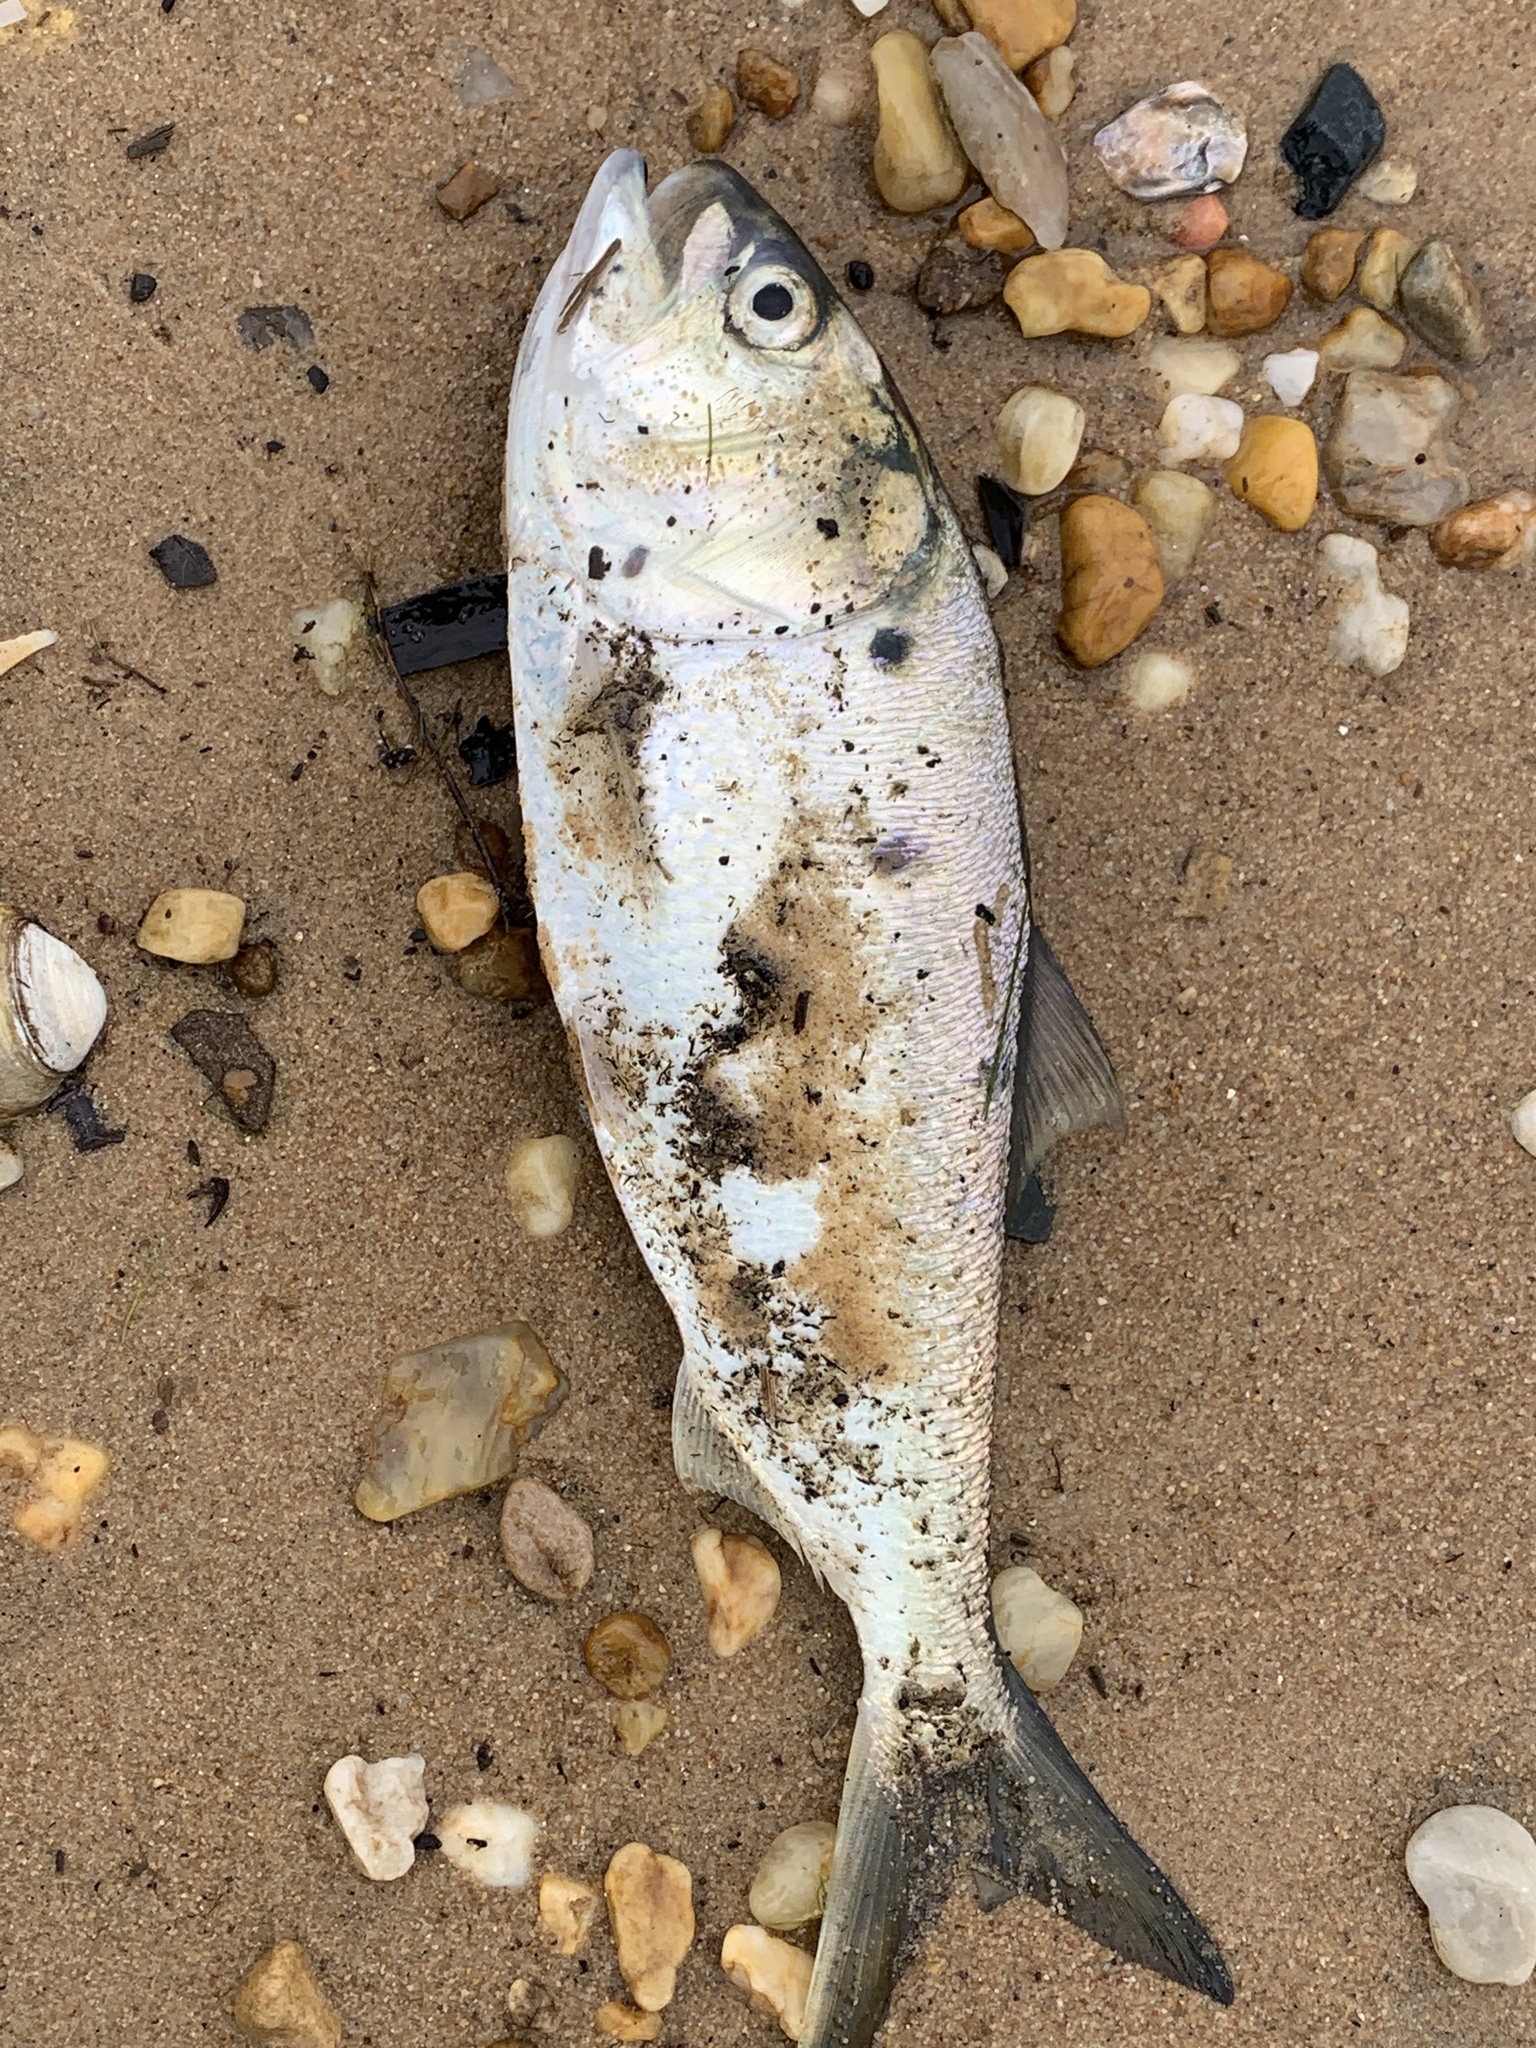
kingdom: Animalia
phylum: Chordata
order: Clupeiformes
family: Clupeidae
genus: Brevoortia
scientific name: Brevoortia tyrannus
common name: Atlantic menhaden
